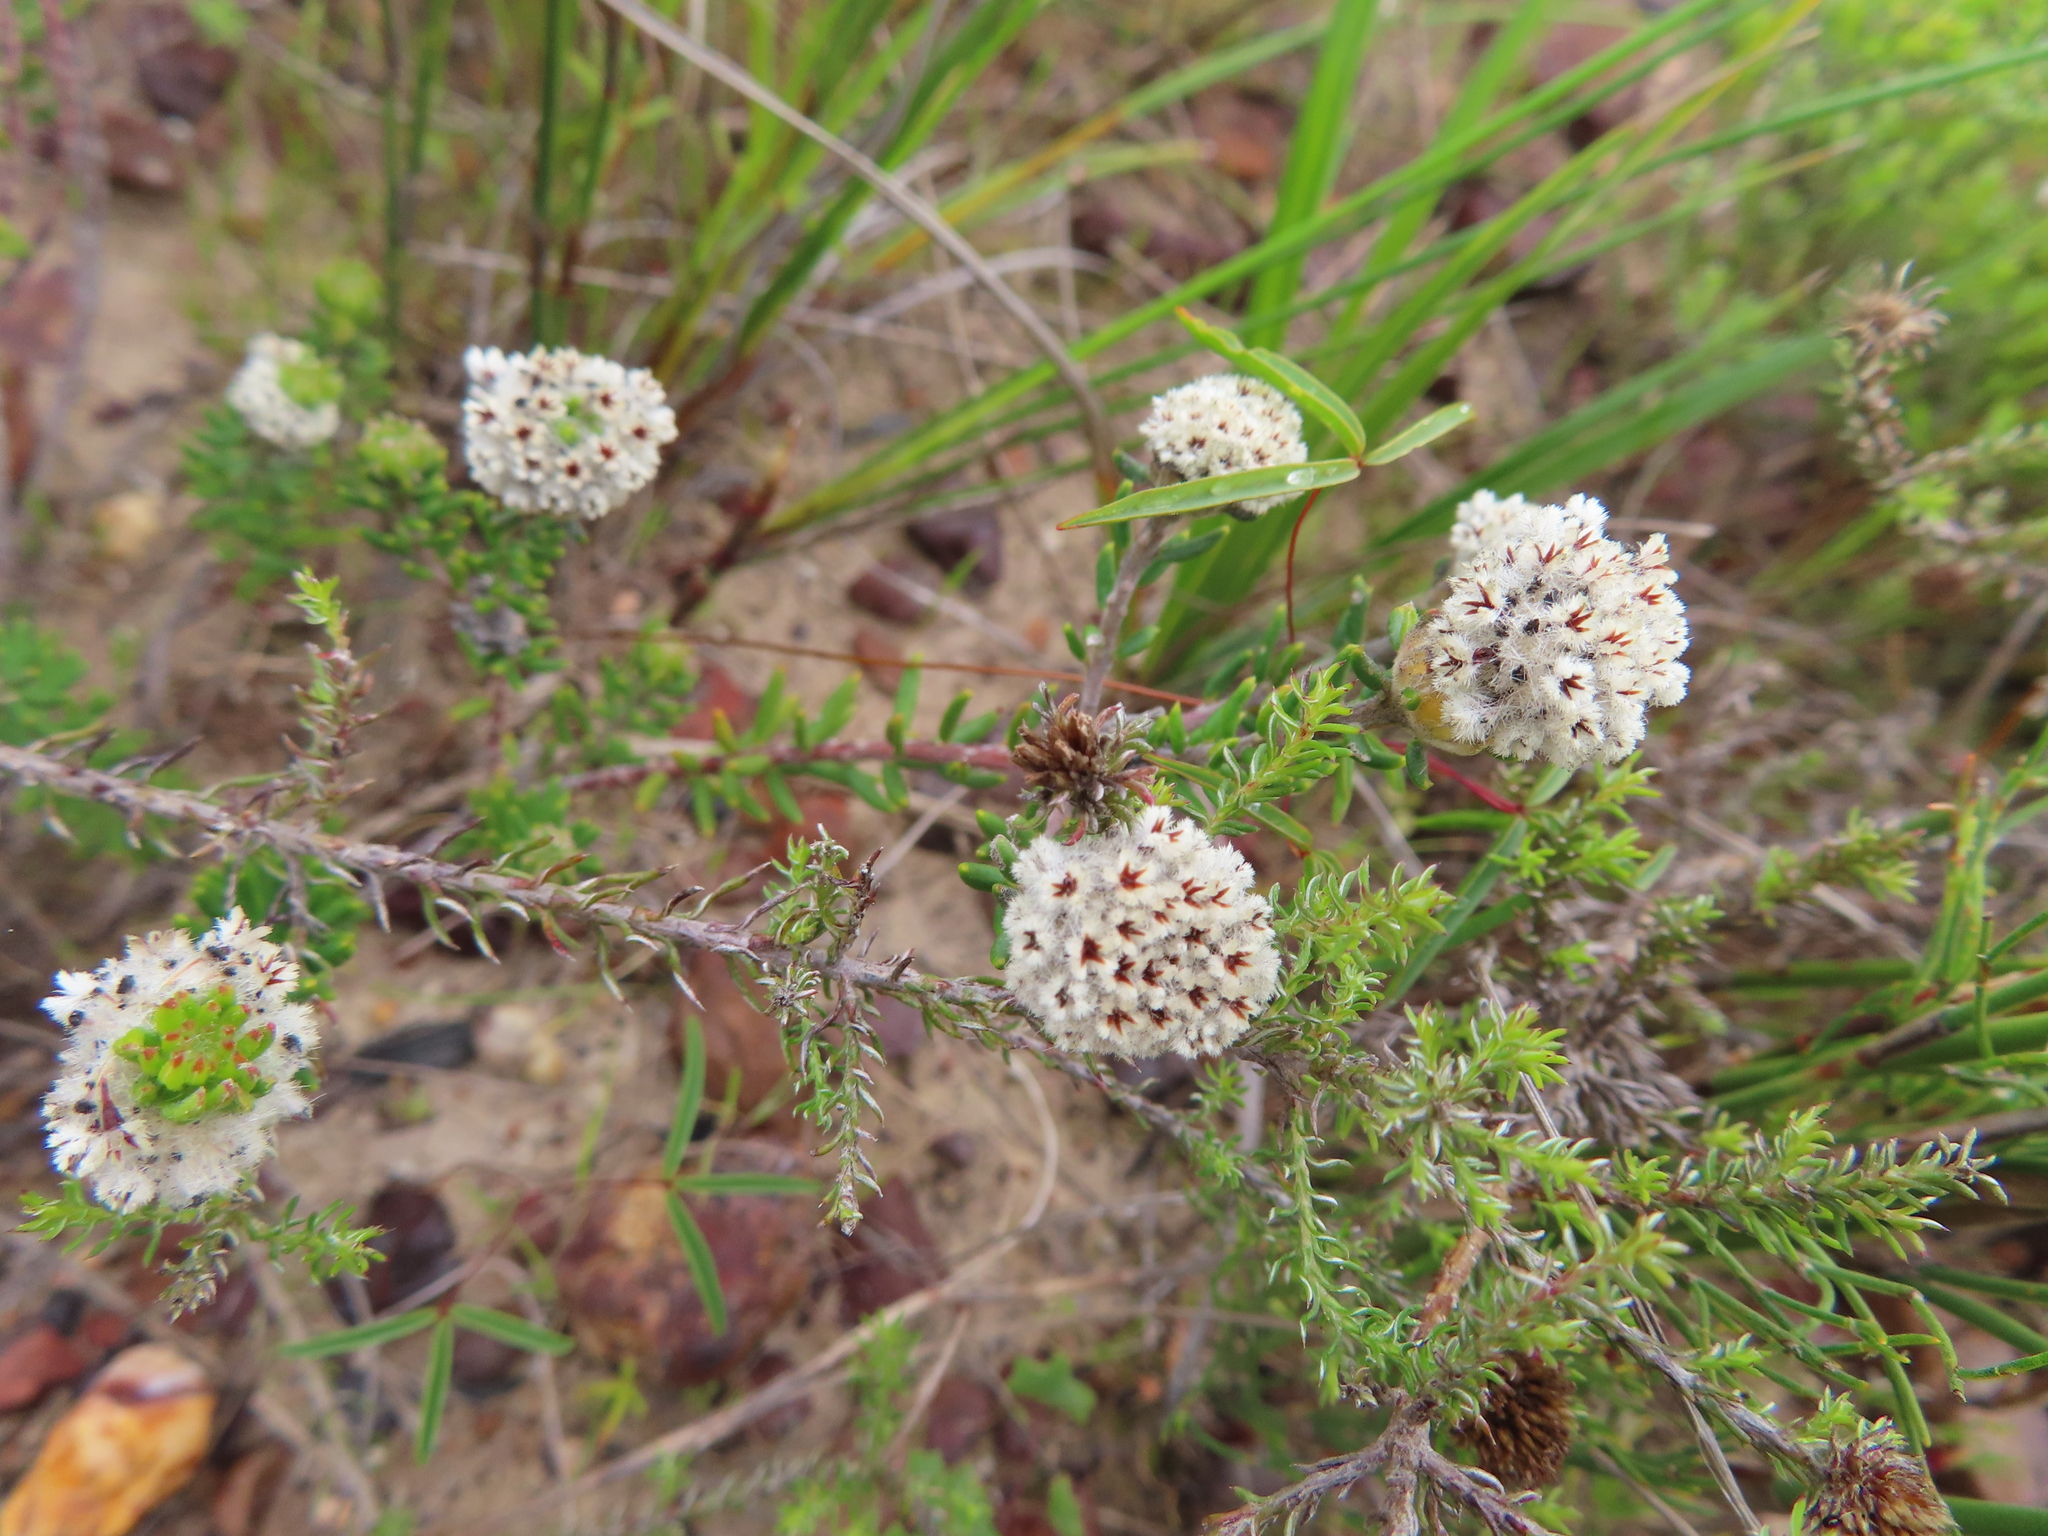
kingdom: Plantae
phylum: Tracheophyta
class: Magnoliopsida
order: Rosales
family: Rhamnaceae
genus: Phylica
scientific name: Phylica selaginoides
